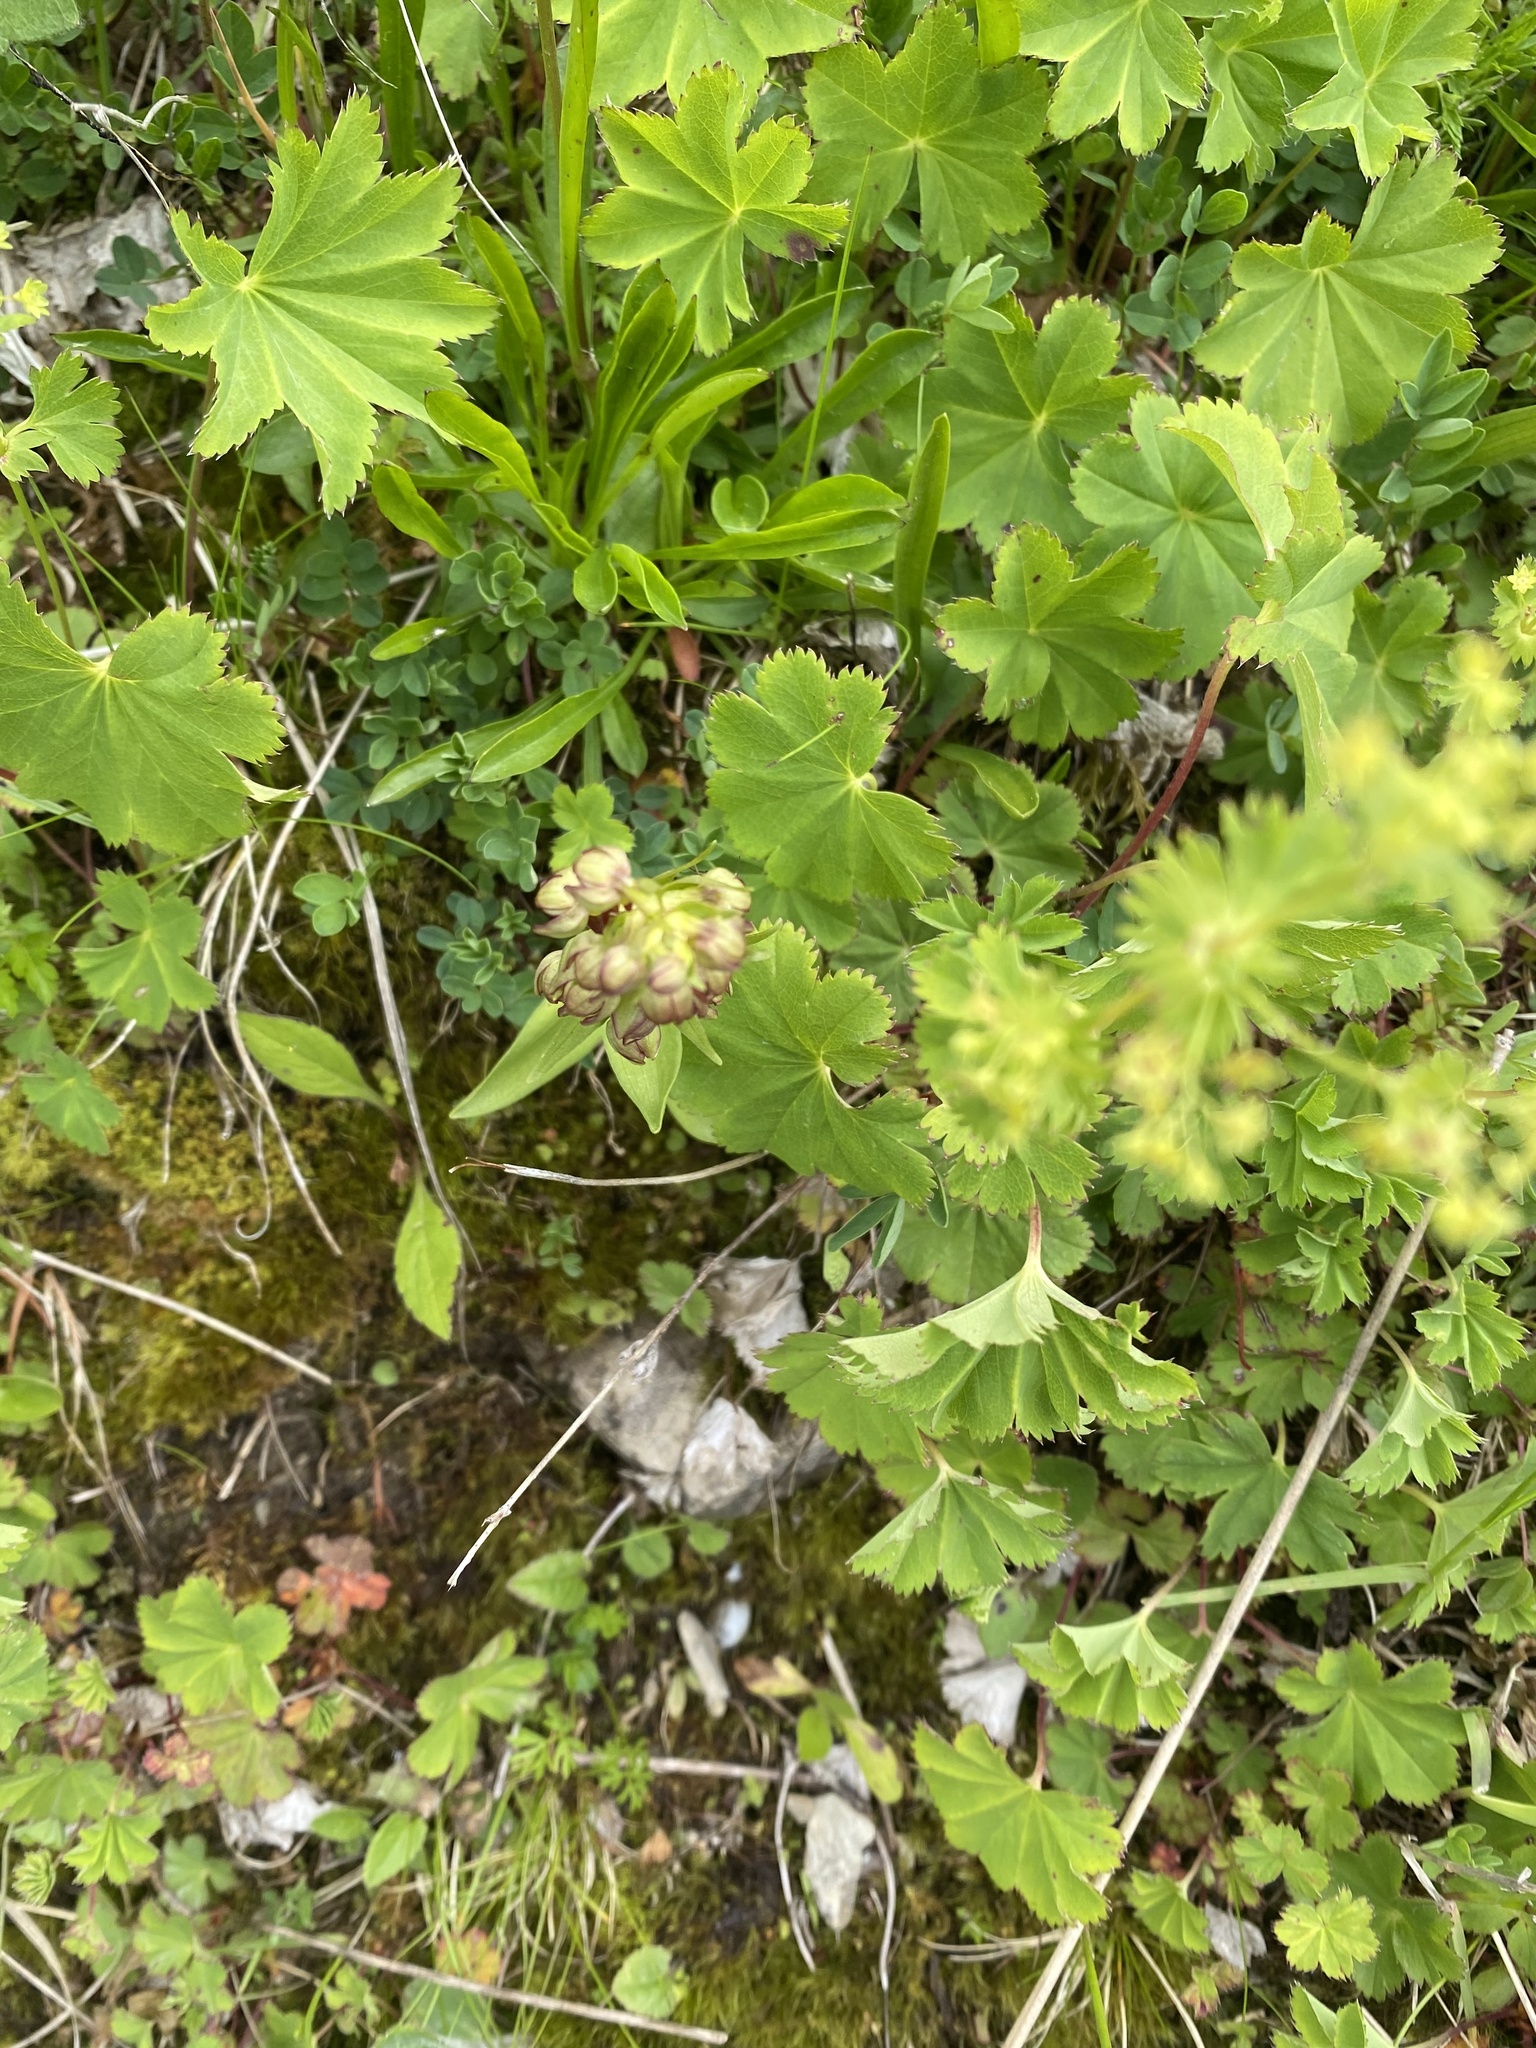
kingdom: Plantae
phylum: Tracheophyta
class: Liliopsida
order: Asparagales
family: Orchidaceae
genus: Dactylorhiza
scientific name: Dactylorhiza viridis
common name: Longbract frog orchid
